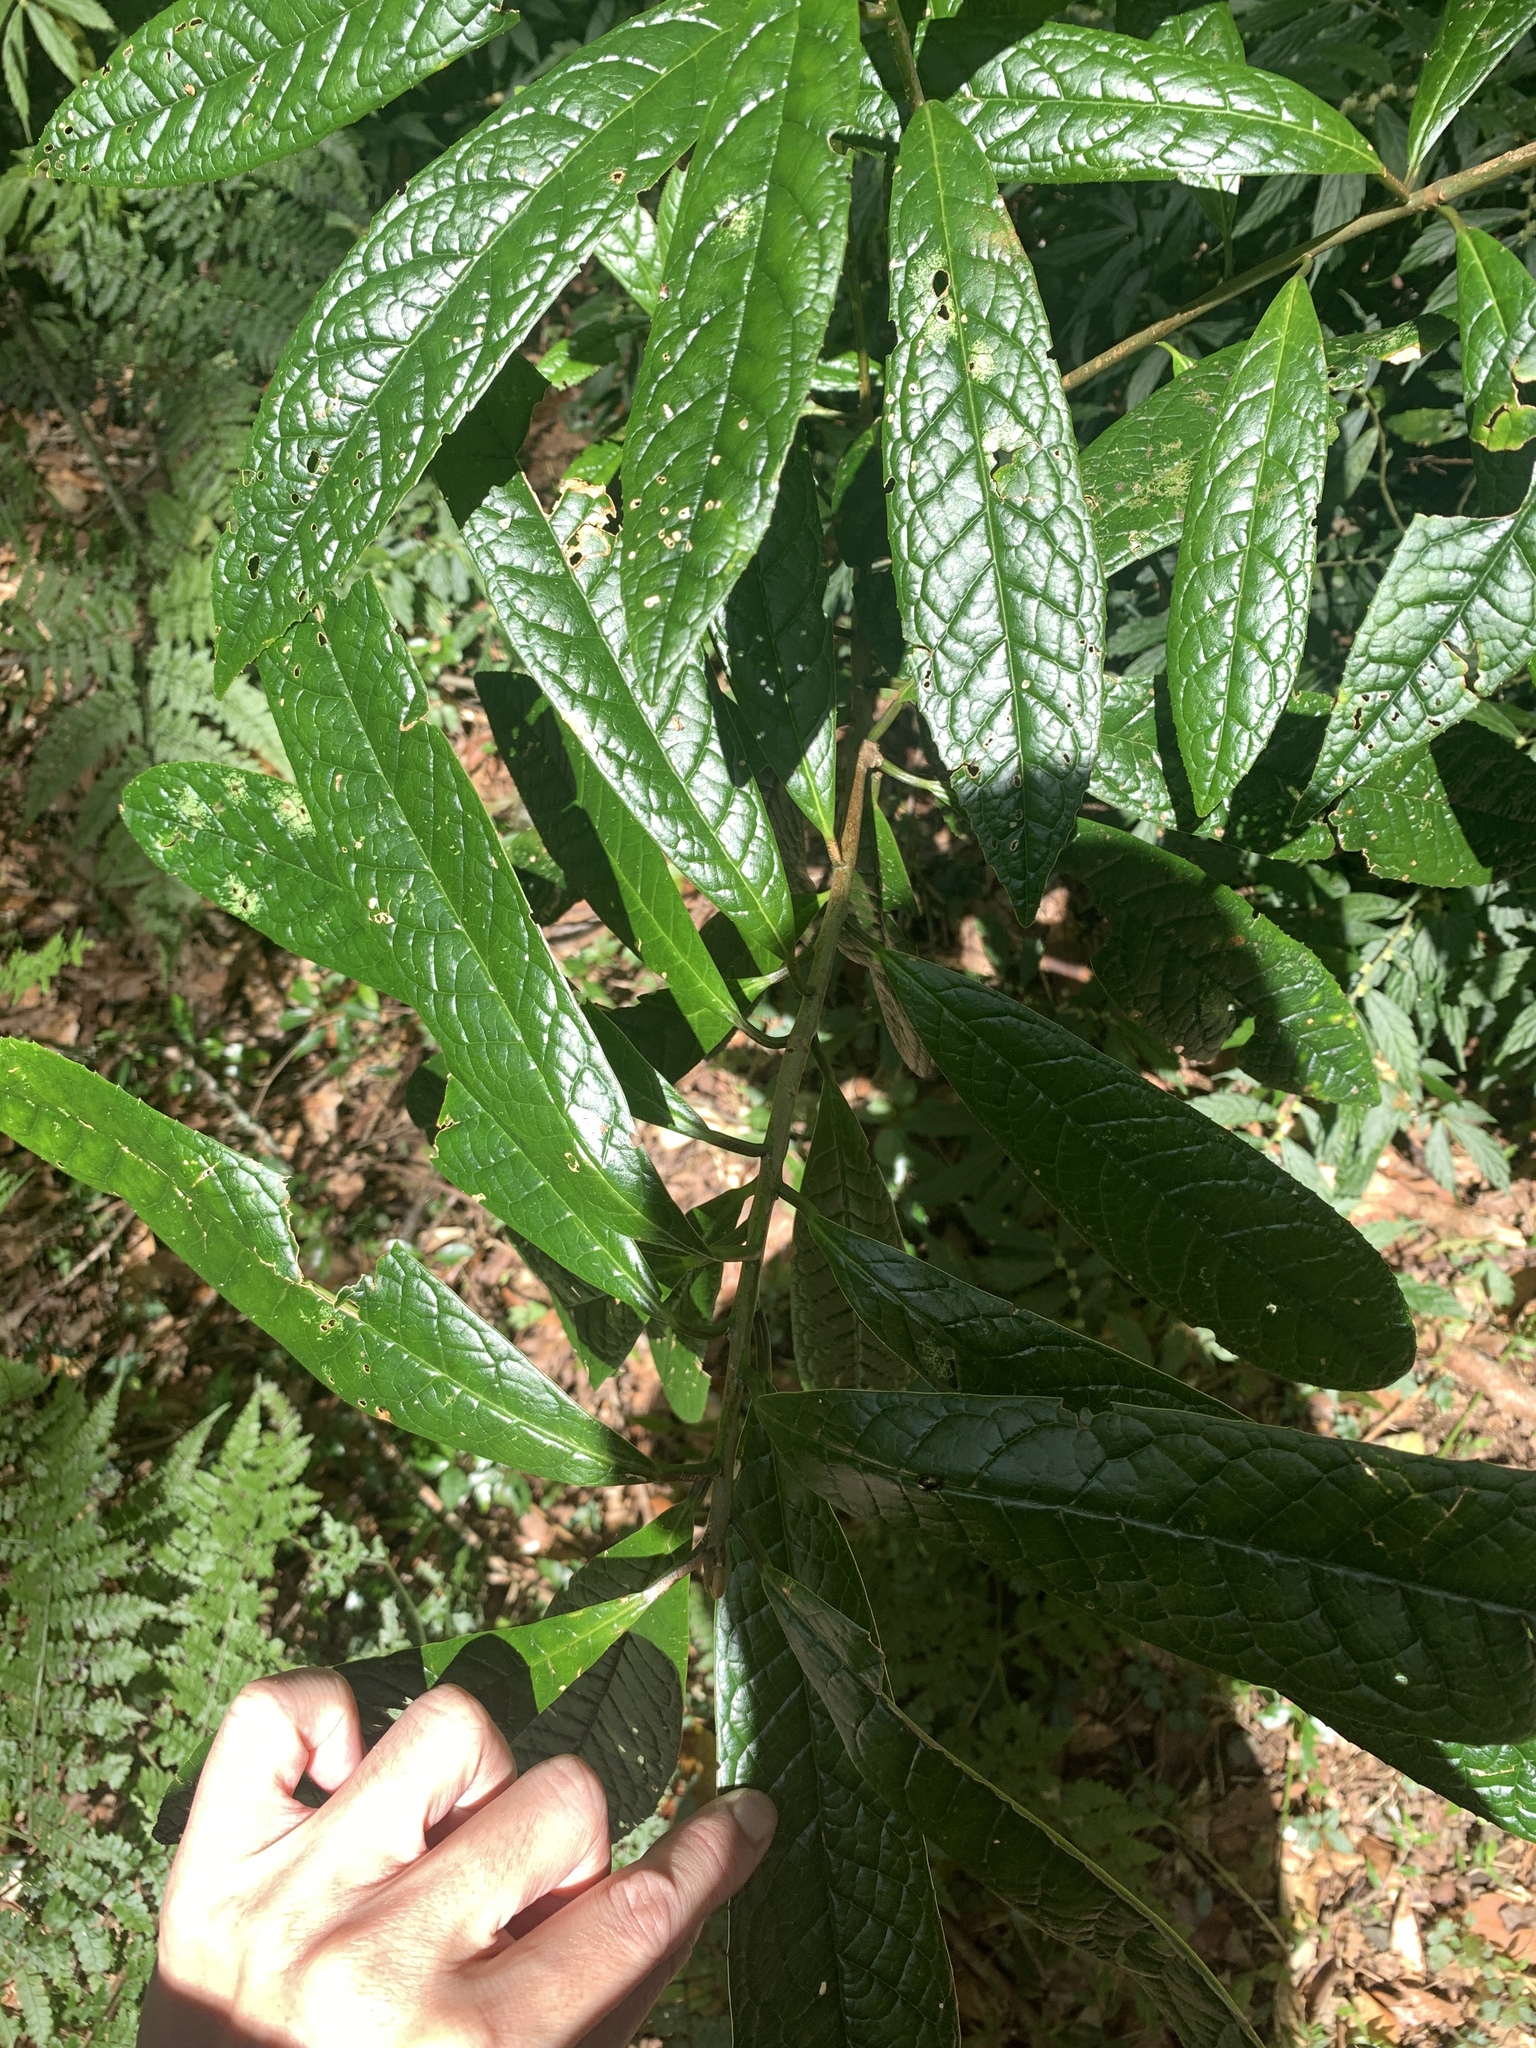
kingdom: Plantae
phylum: Tracheophyta
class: Magnoliopsida
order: Ericales
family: Symplocaceae
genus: Symplocos
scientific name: Symplocos glauca
